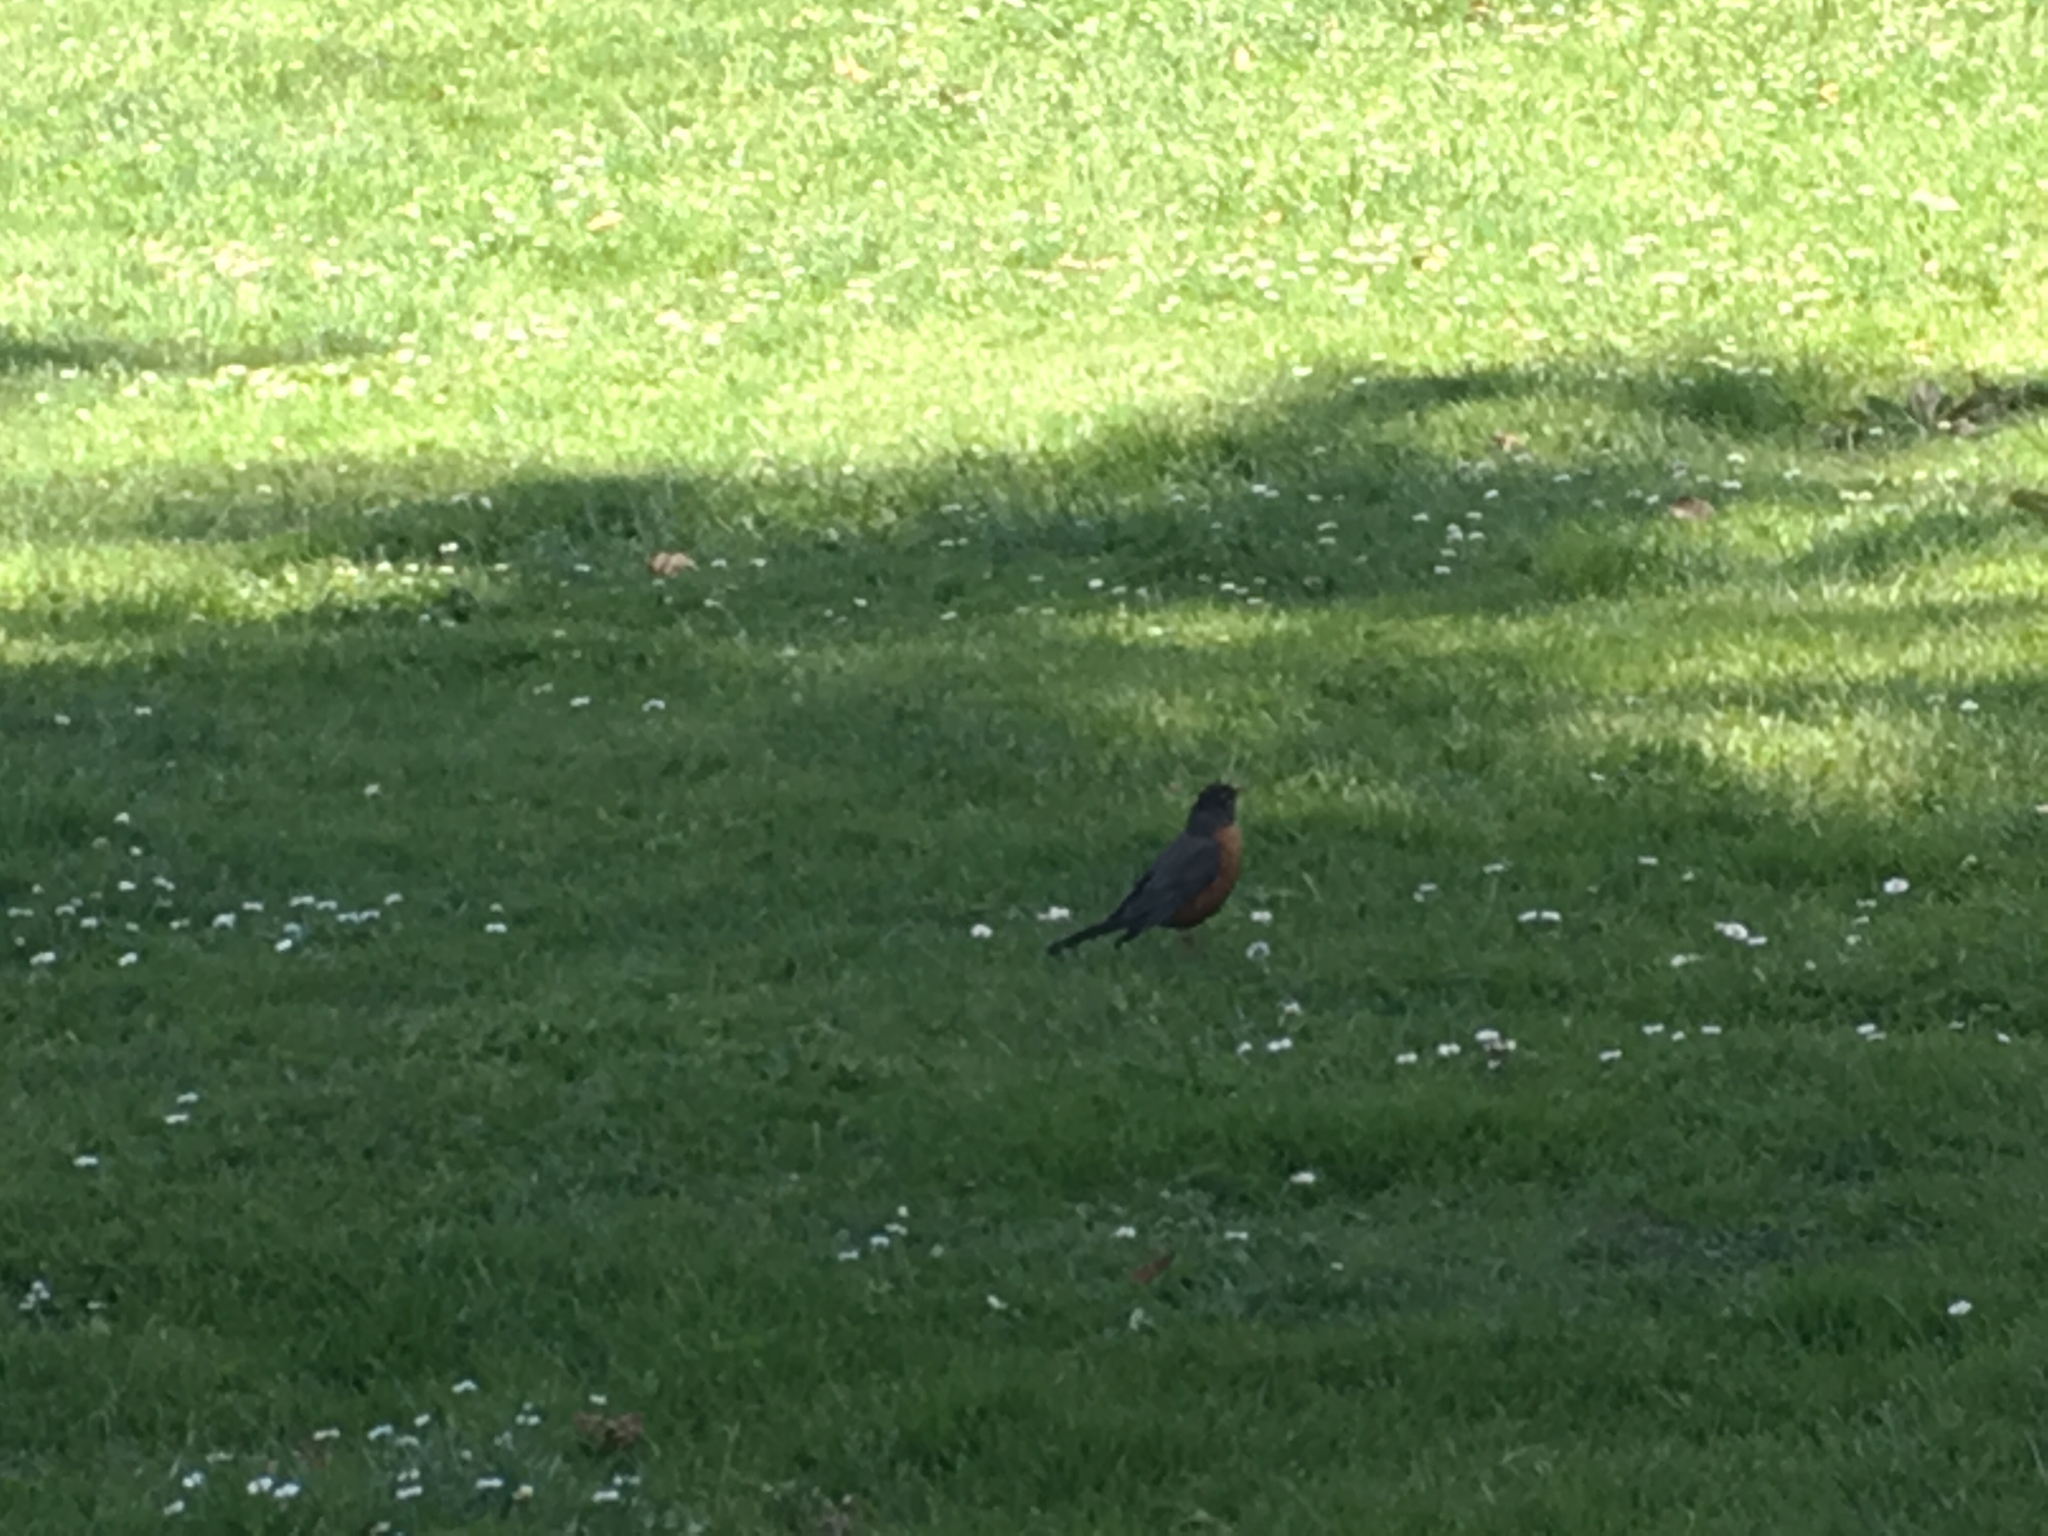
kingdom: Animalia
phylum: Chordata
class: Aves
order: Passeriformes
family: Turdidae
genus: Turdus
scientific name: Turdus migratorius
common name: American robin
